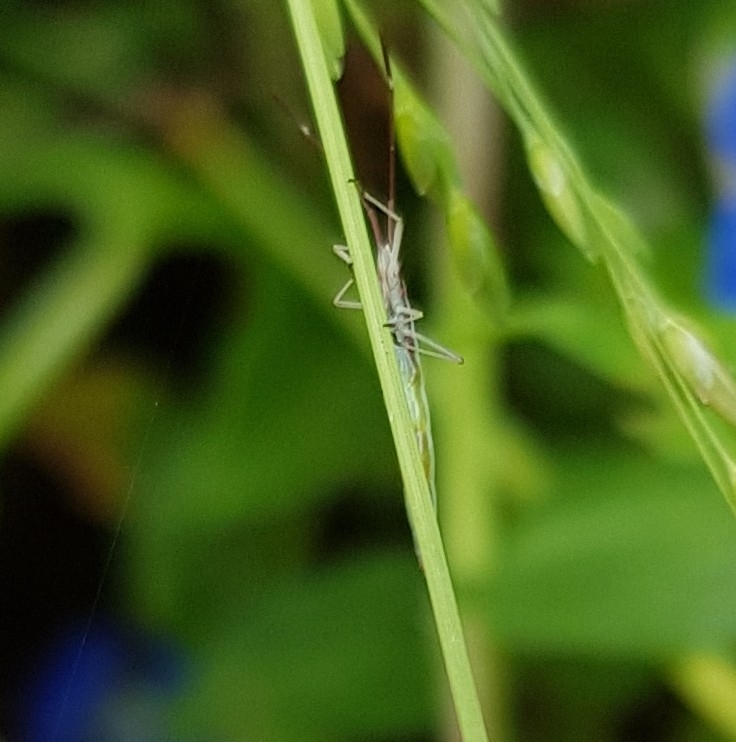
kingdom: Animalia
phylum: Arthropoda
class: Insecta
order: Hemiptera
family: Alydidae
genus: Mutusca
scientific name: Mutusca brevicornis
